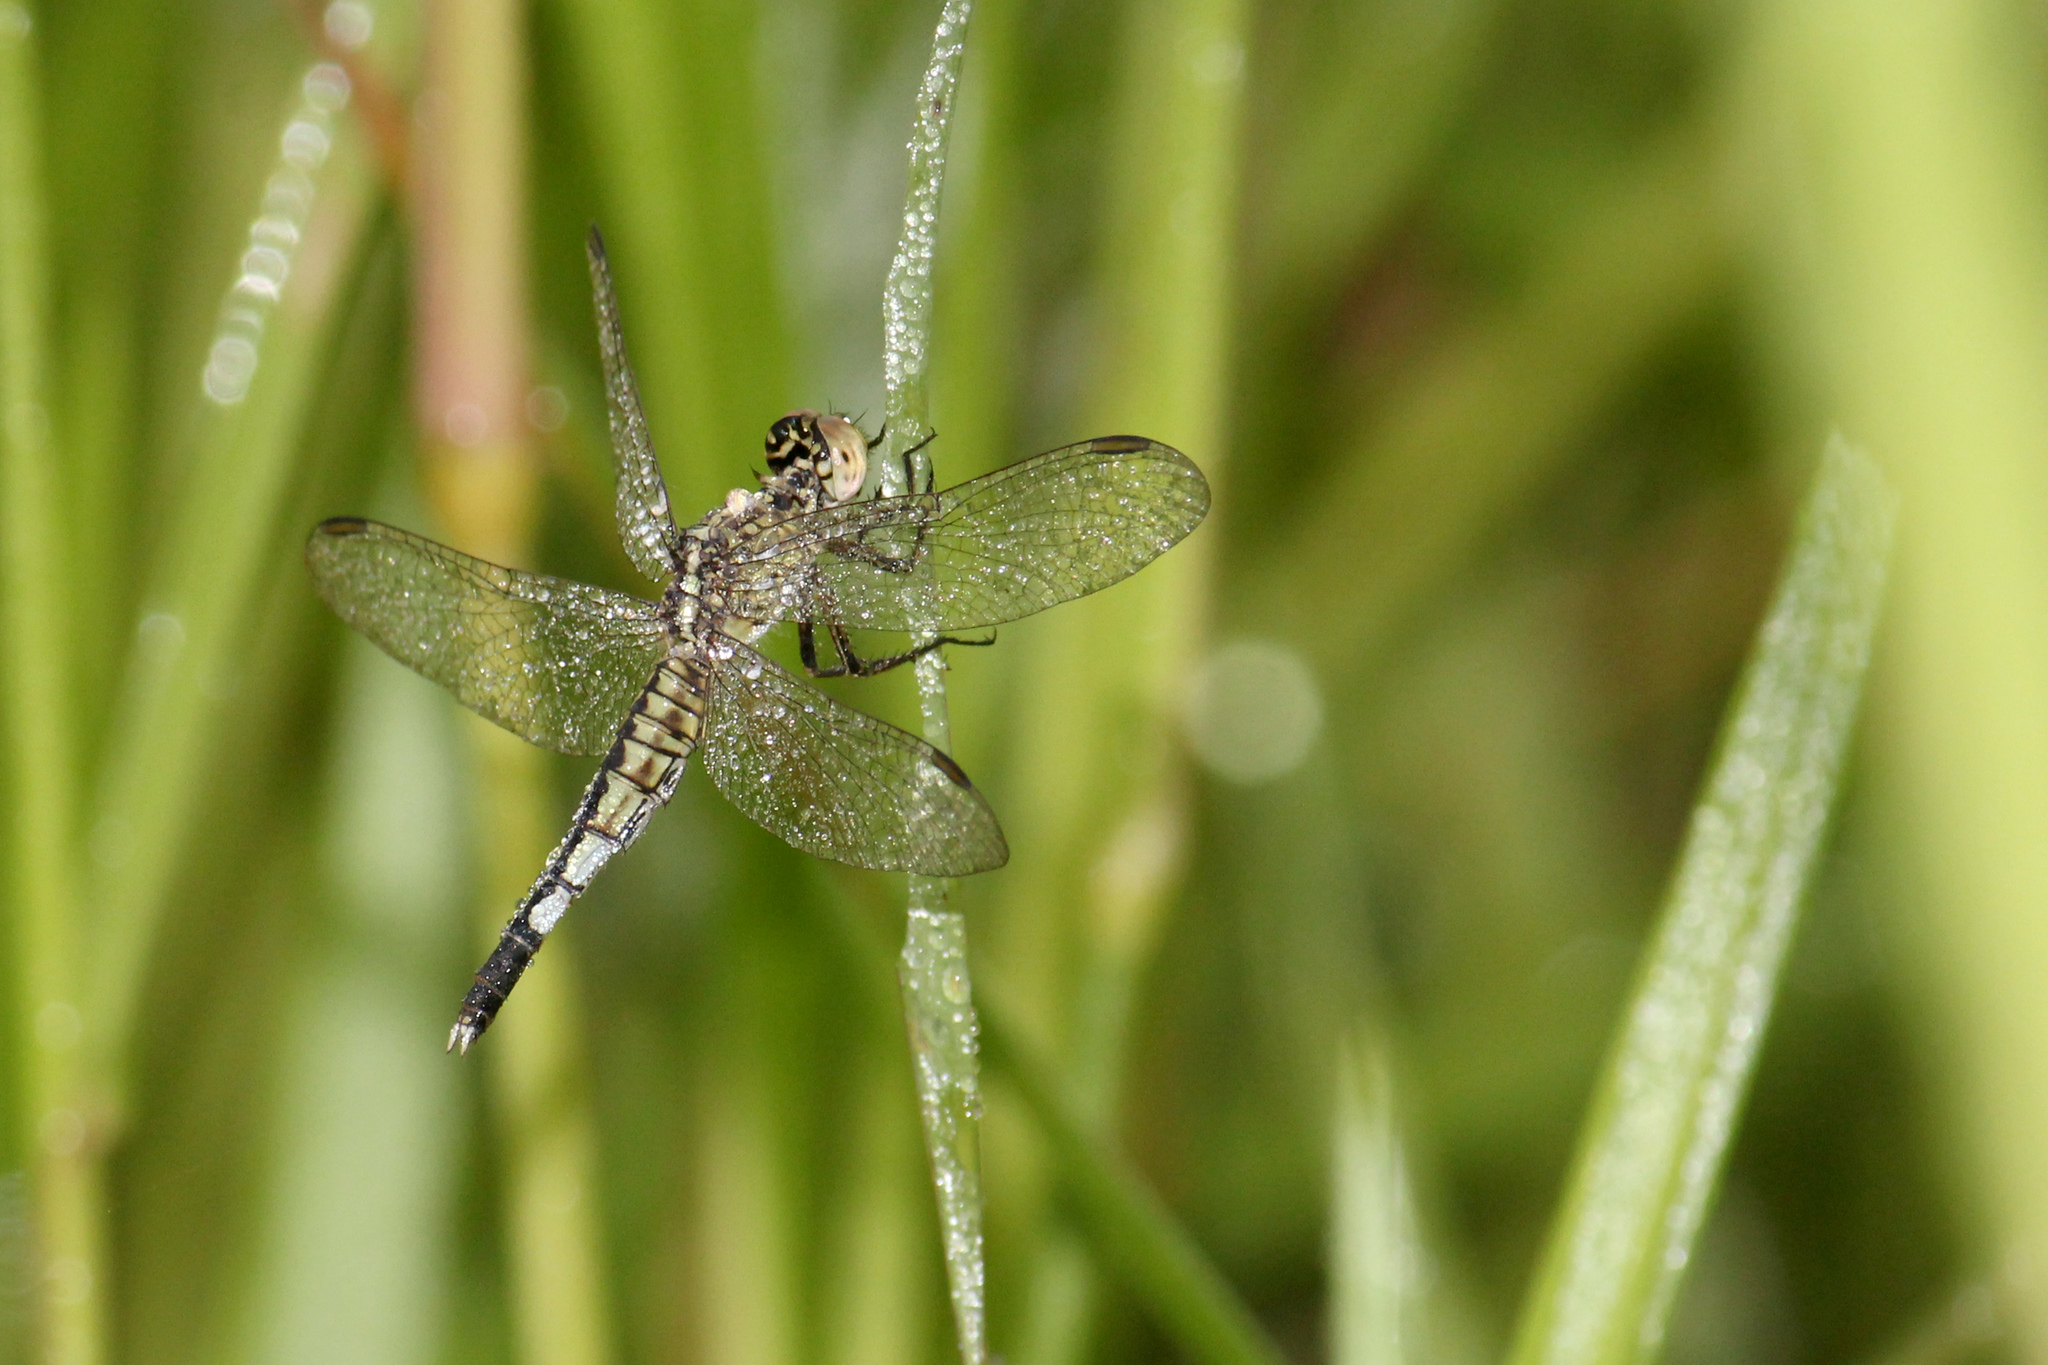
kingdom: Animalia
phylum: Arthropoda
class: Insecta
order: Odonata
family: Libellulidae
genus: Acisoma
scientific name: Acisoma panorpoides
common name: Asian pintail
